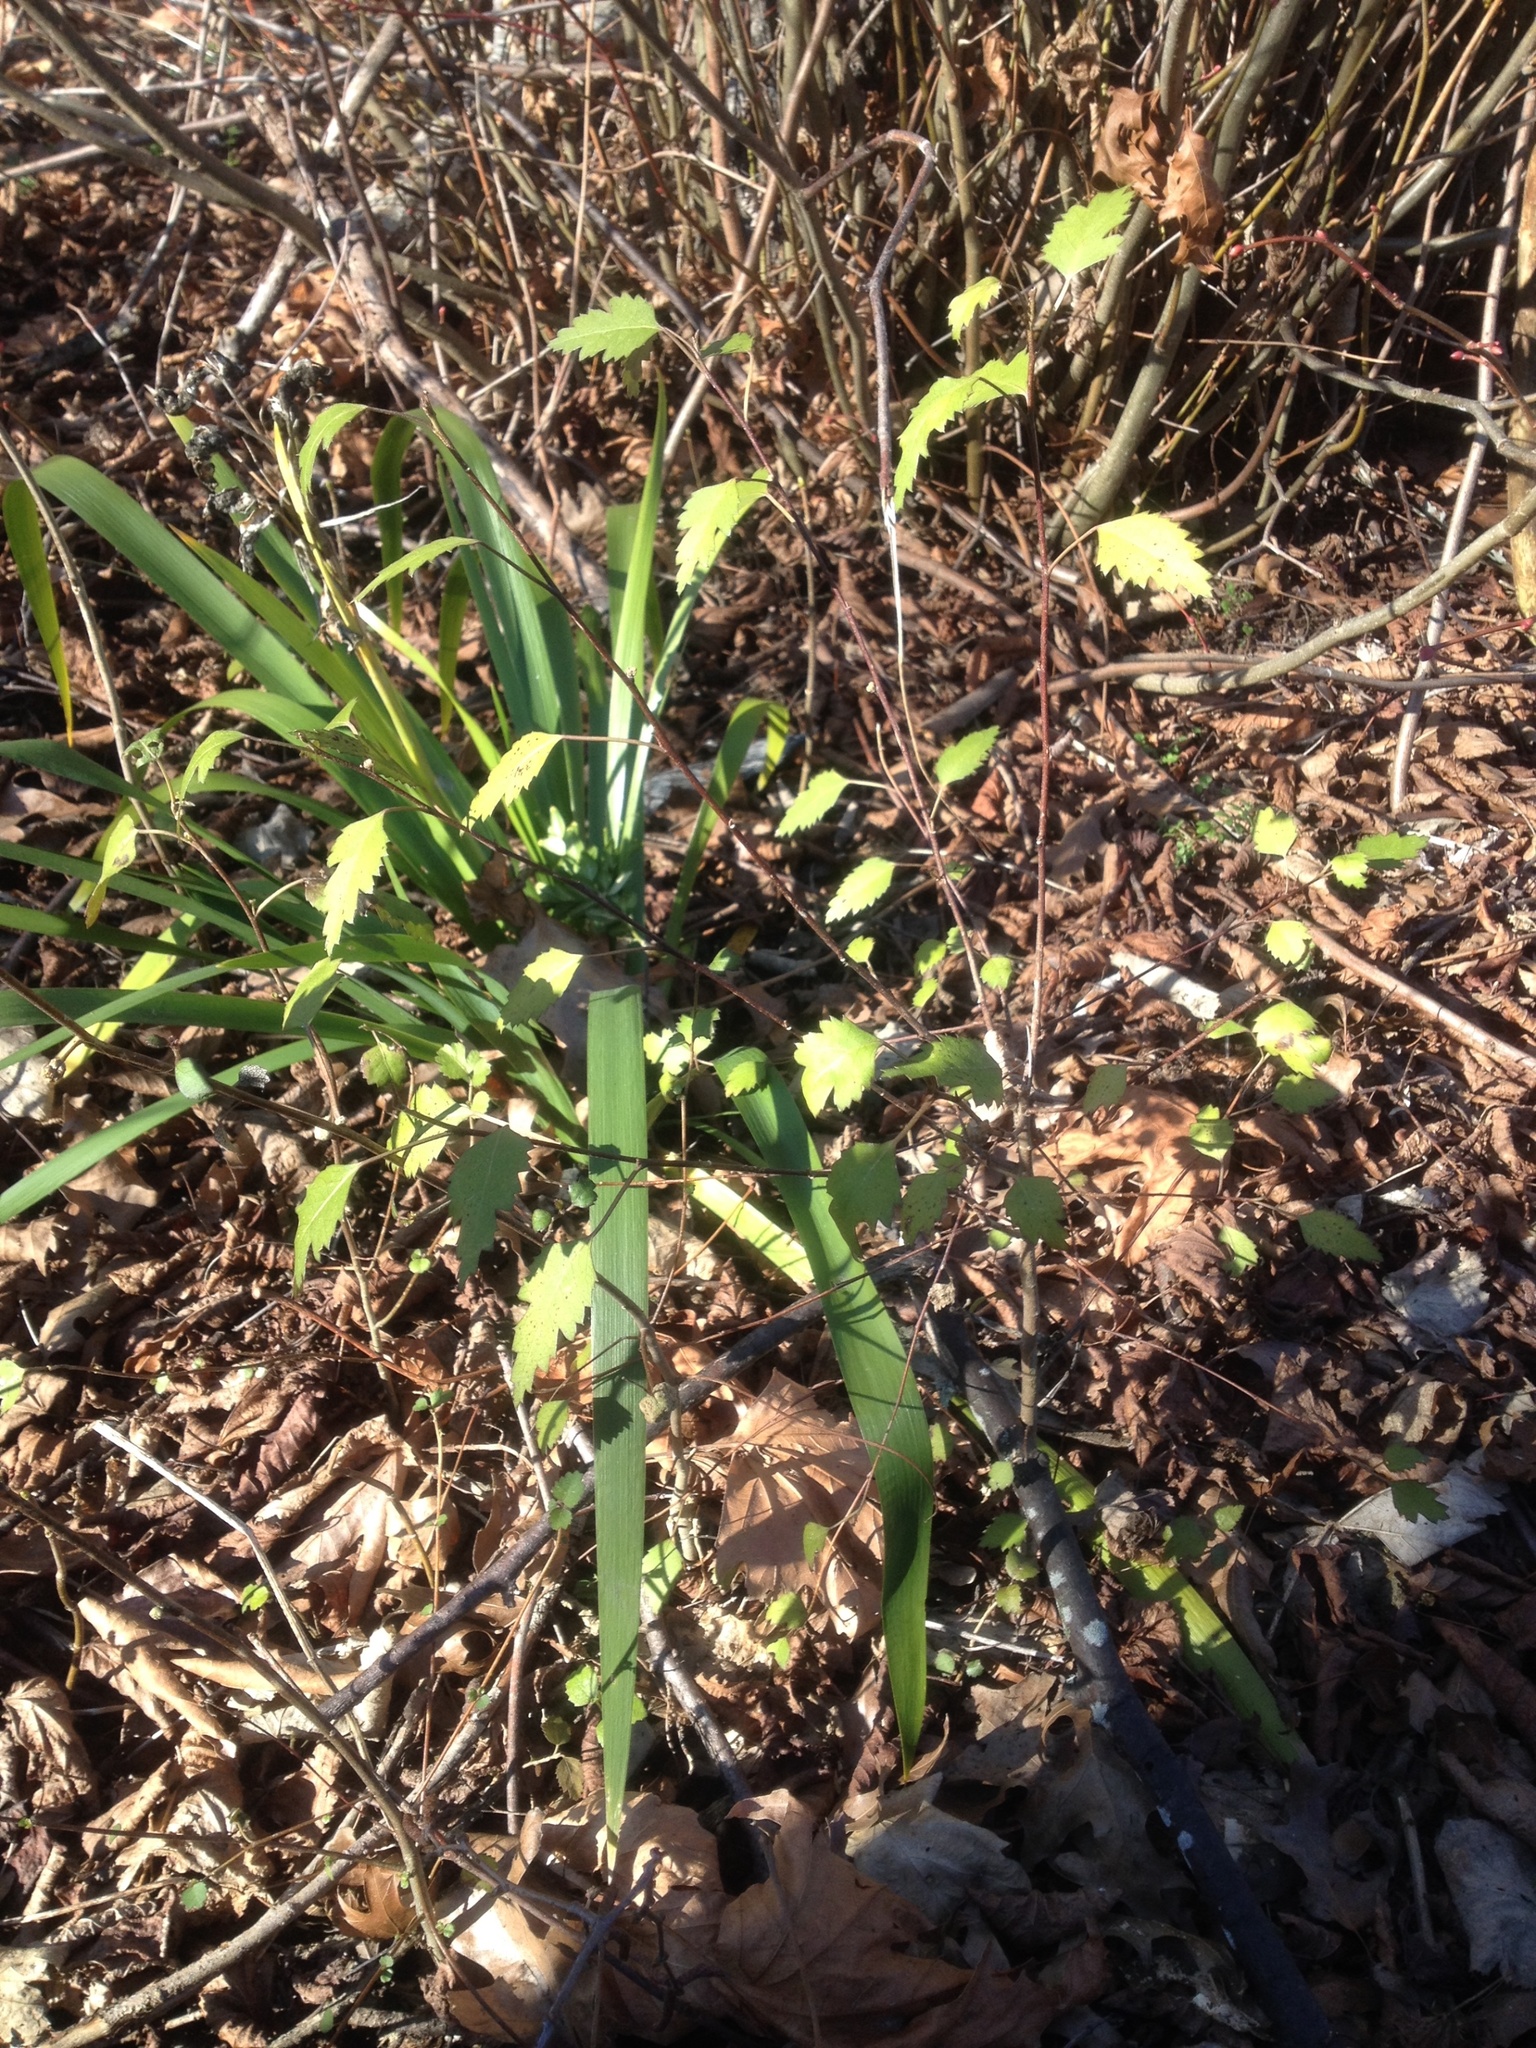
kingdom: Plantae
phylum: Tracheophyta
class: Magnoliopsida
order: Malvales
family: Malvaceae
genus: Plagianthus
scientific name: Plagianthus regius
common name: Manatu
